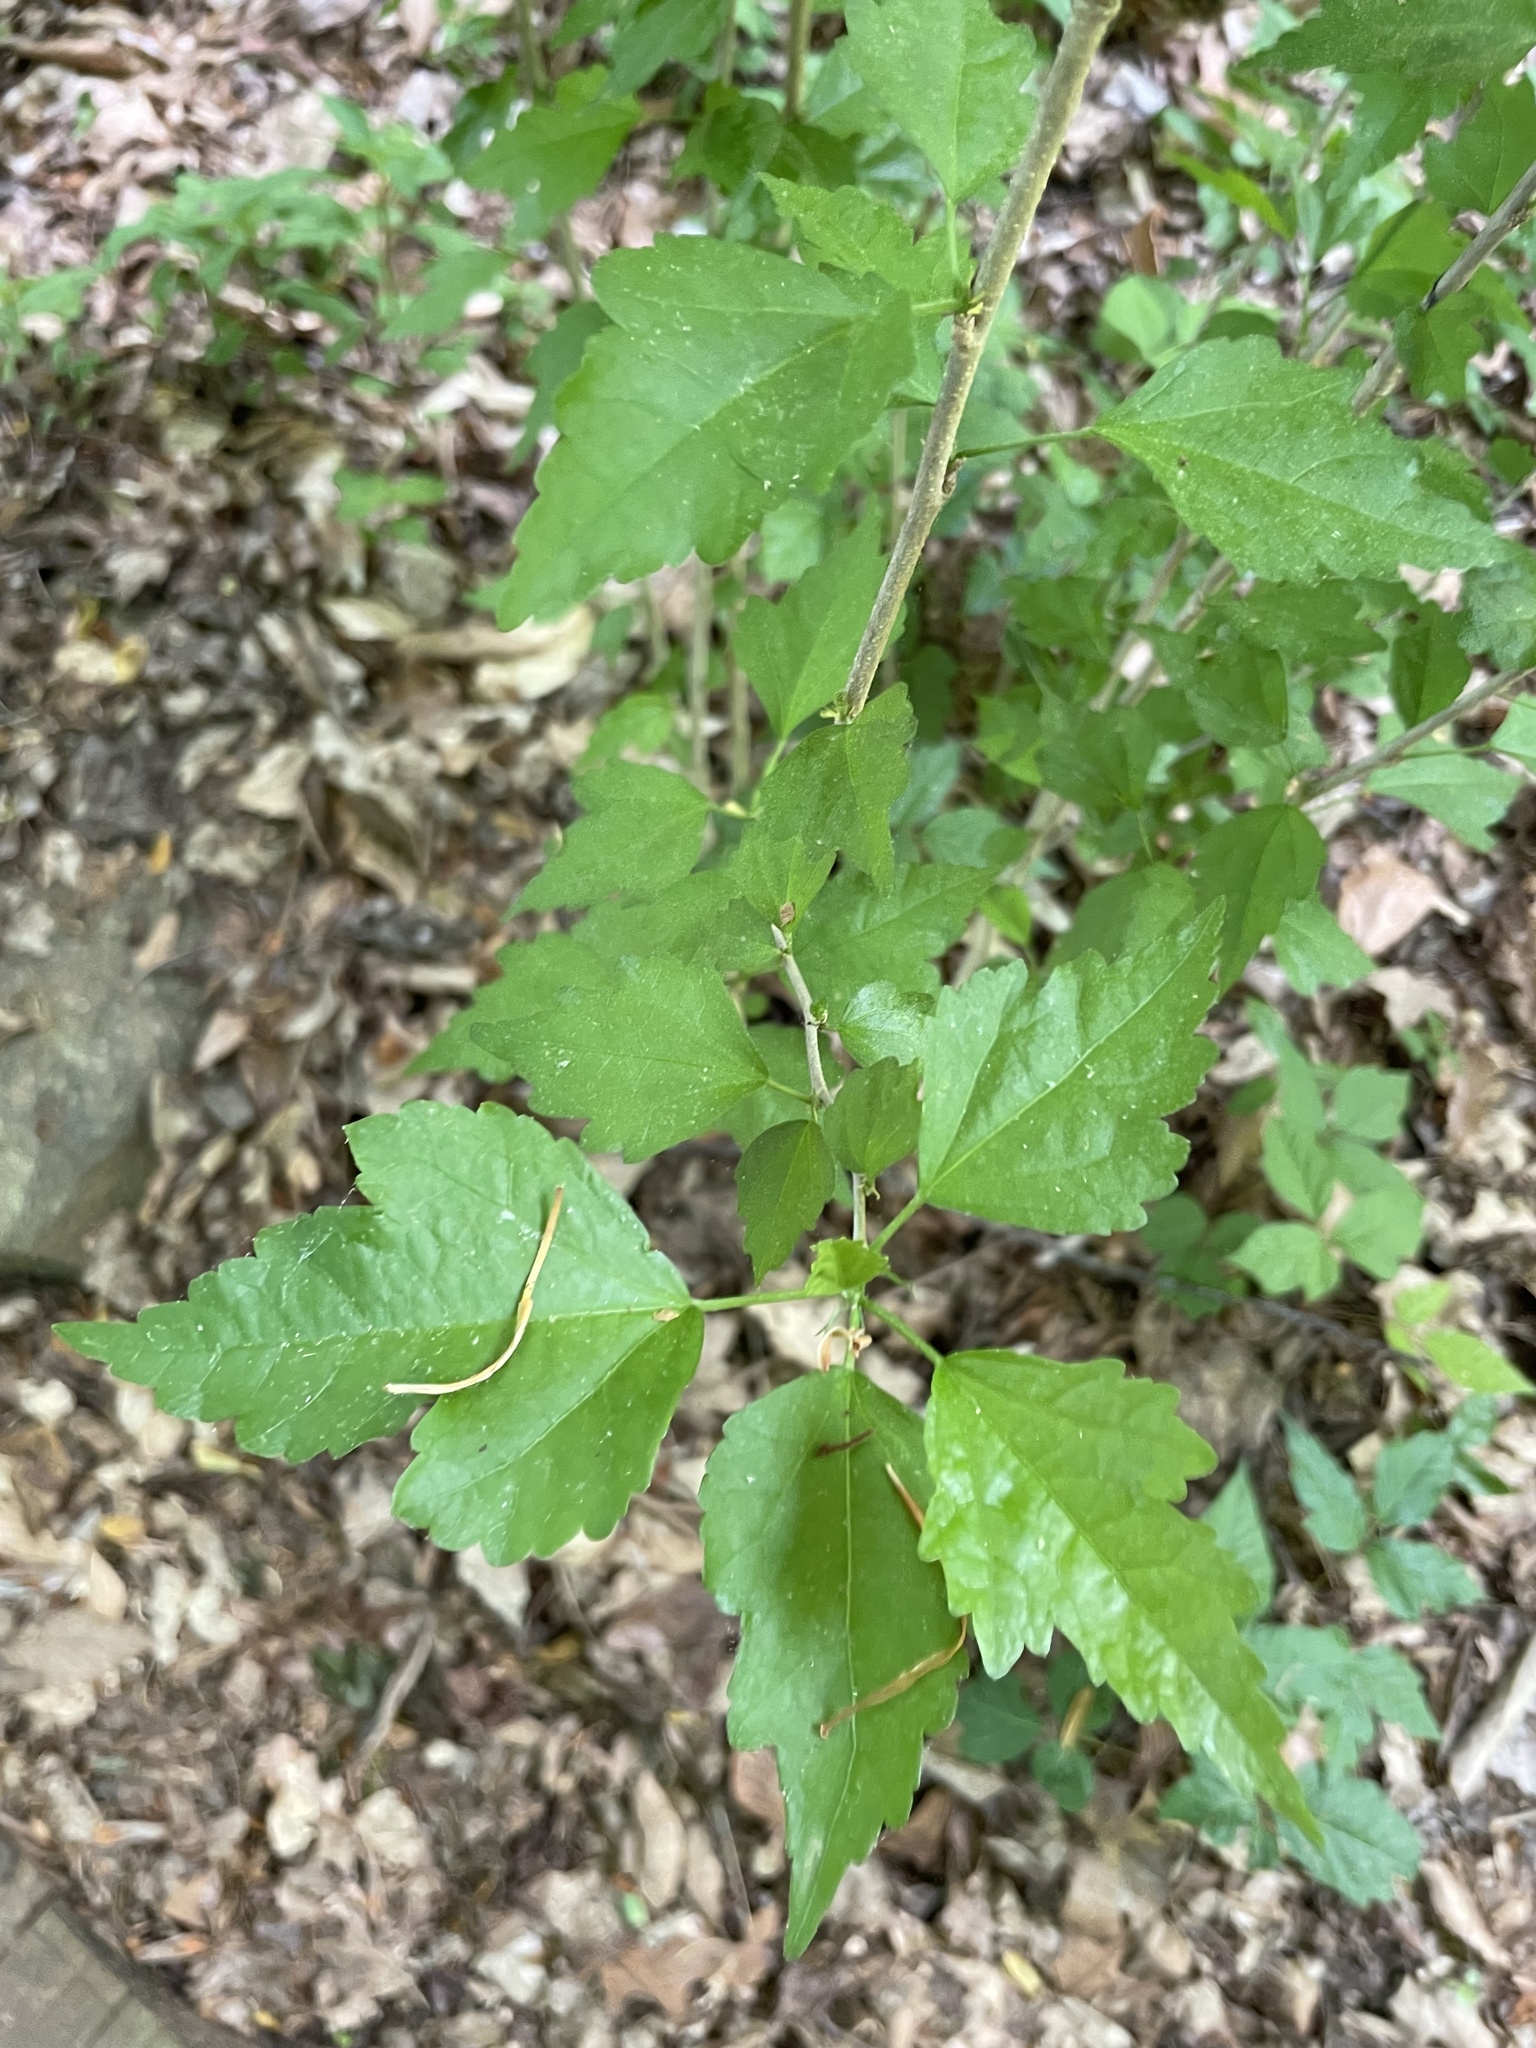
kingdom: Plantae
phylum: Tracheophyta
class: Magnoliopsida
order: Malvales
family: Malvaceae
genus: Hibiscus
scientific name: Hibiscus syriacus
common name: Syrian ketmia
